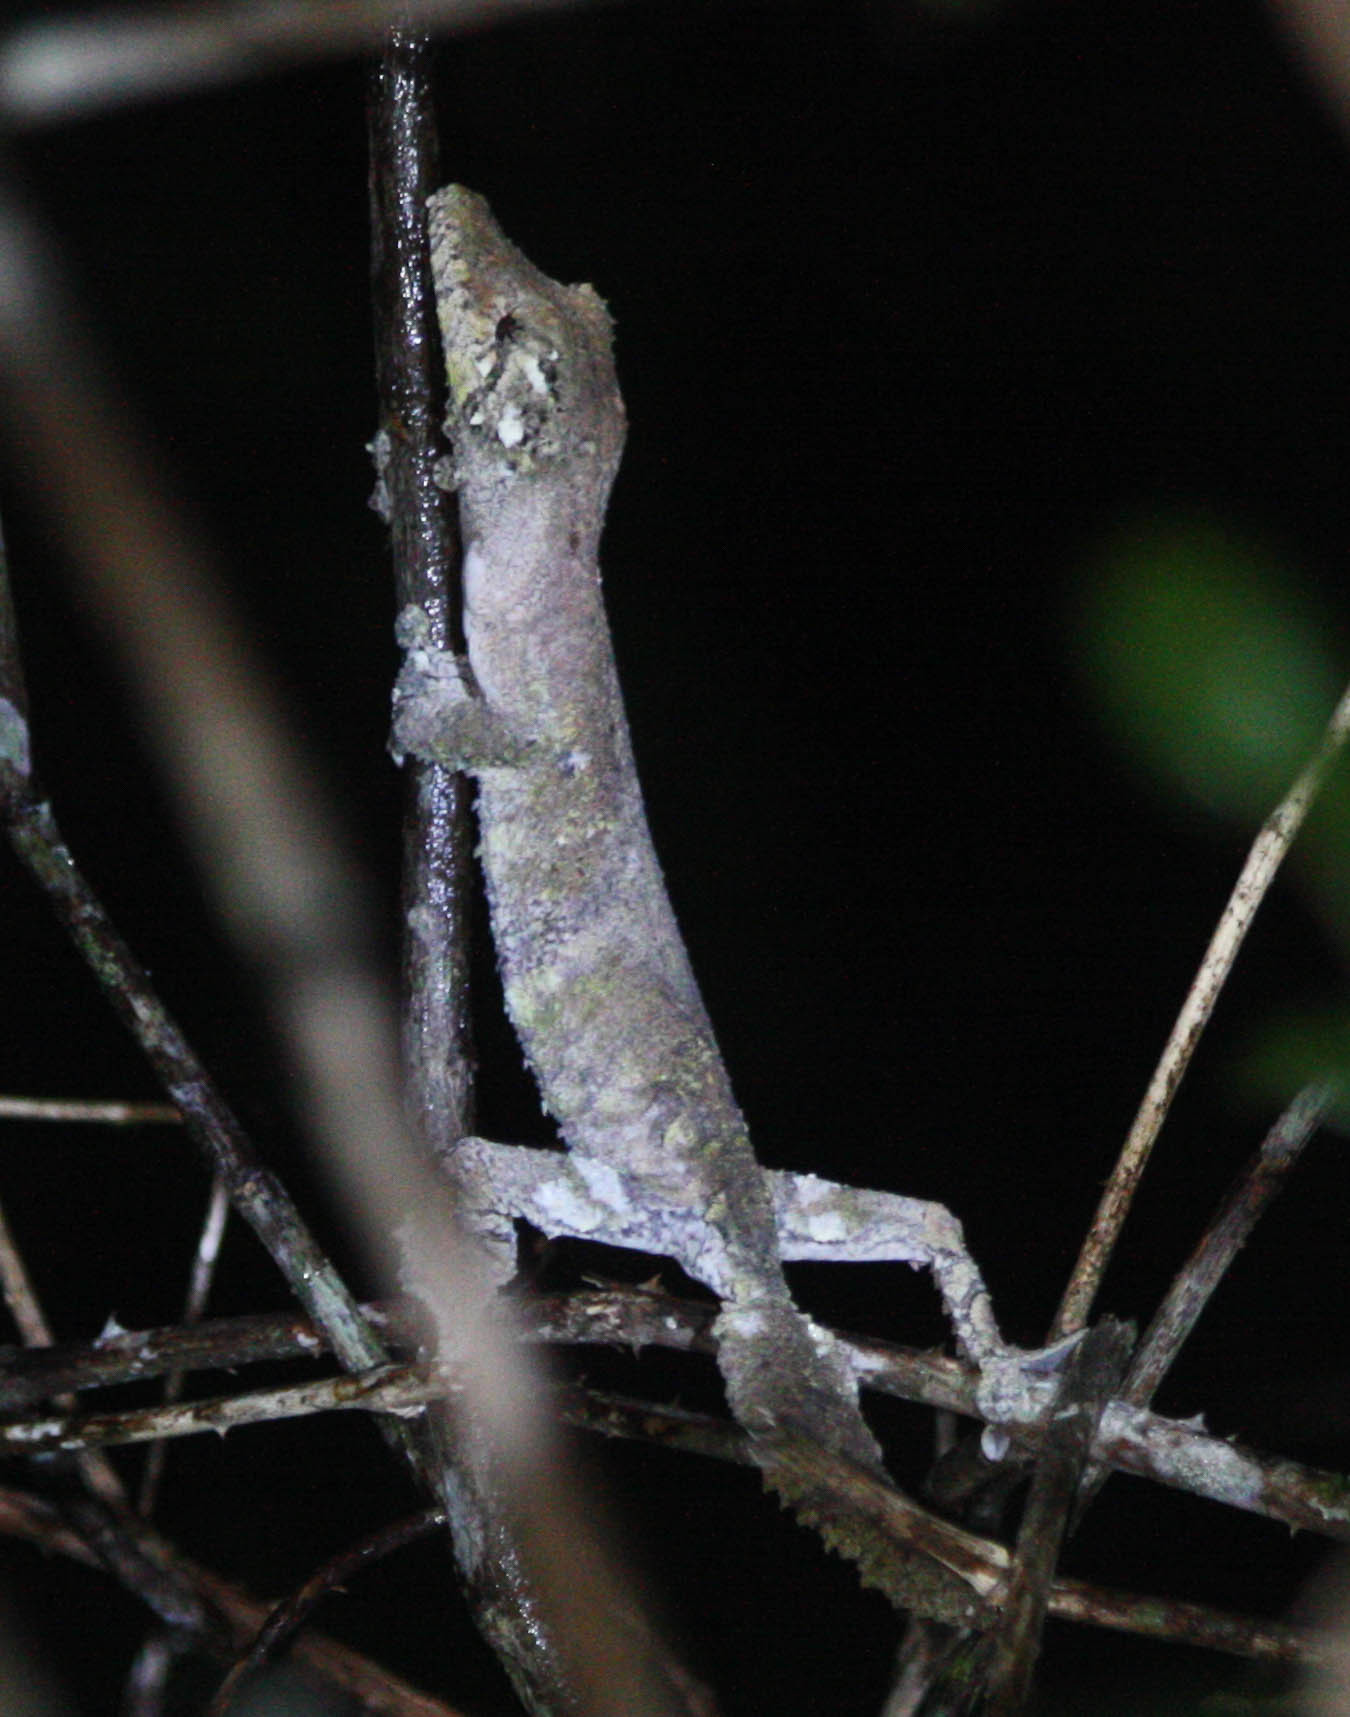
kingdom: Animalia
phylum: Chordata
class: Squamata
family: Gekkonidae
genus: Uroplatus
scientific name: Uroplatus sikorae
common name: Southern flat-tail gecko
